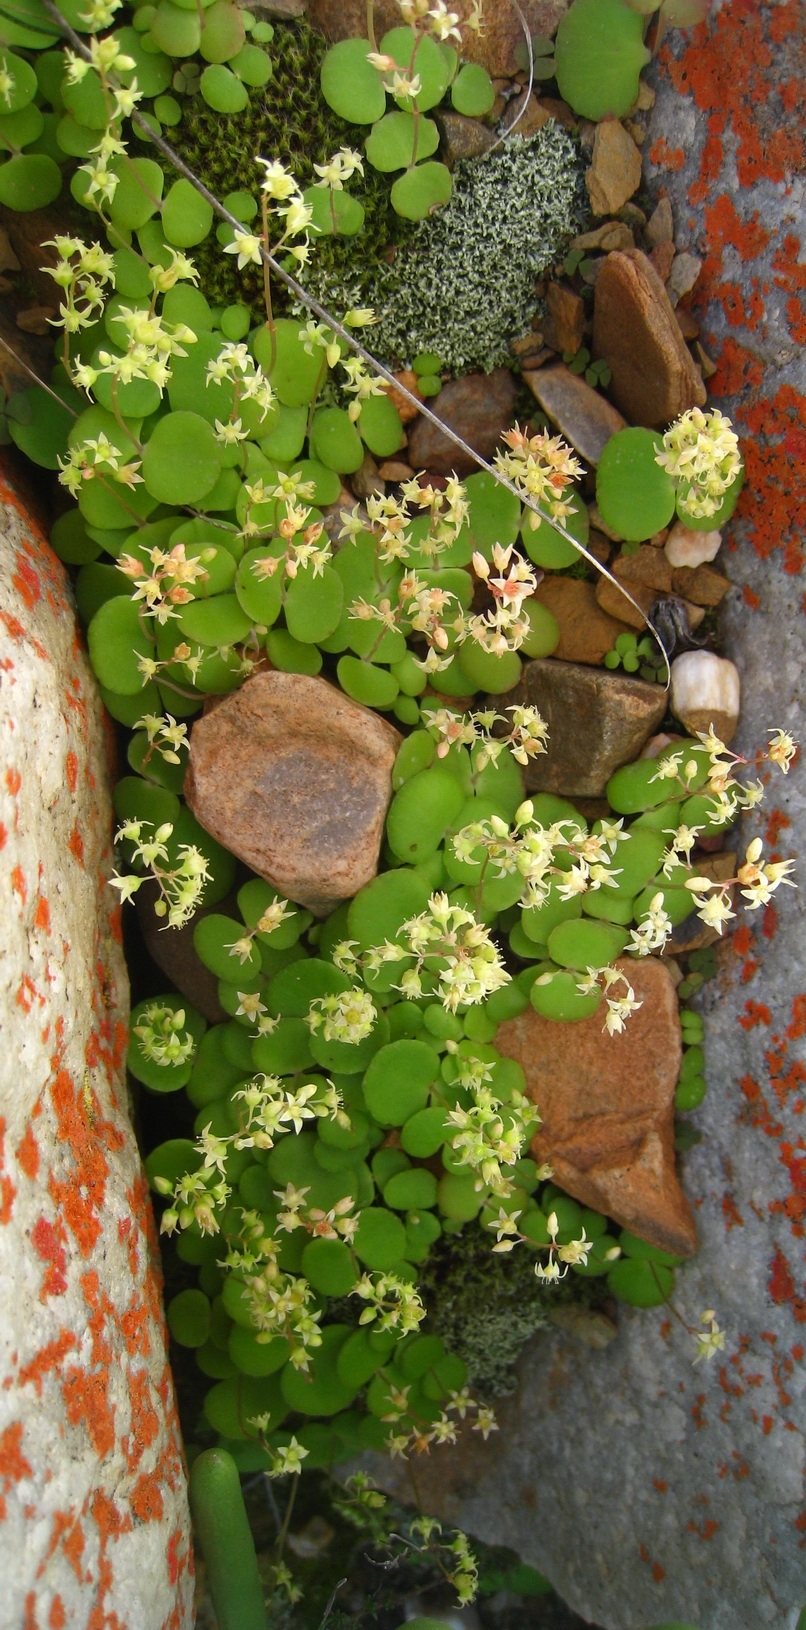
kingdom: Plantae
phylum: Tracheophyta
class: Magnoliopsida
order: Saxifragales
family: Crassulaceae
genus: Crassula
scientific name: Crassula umbella
